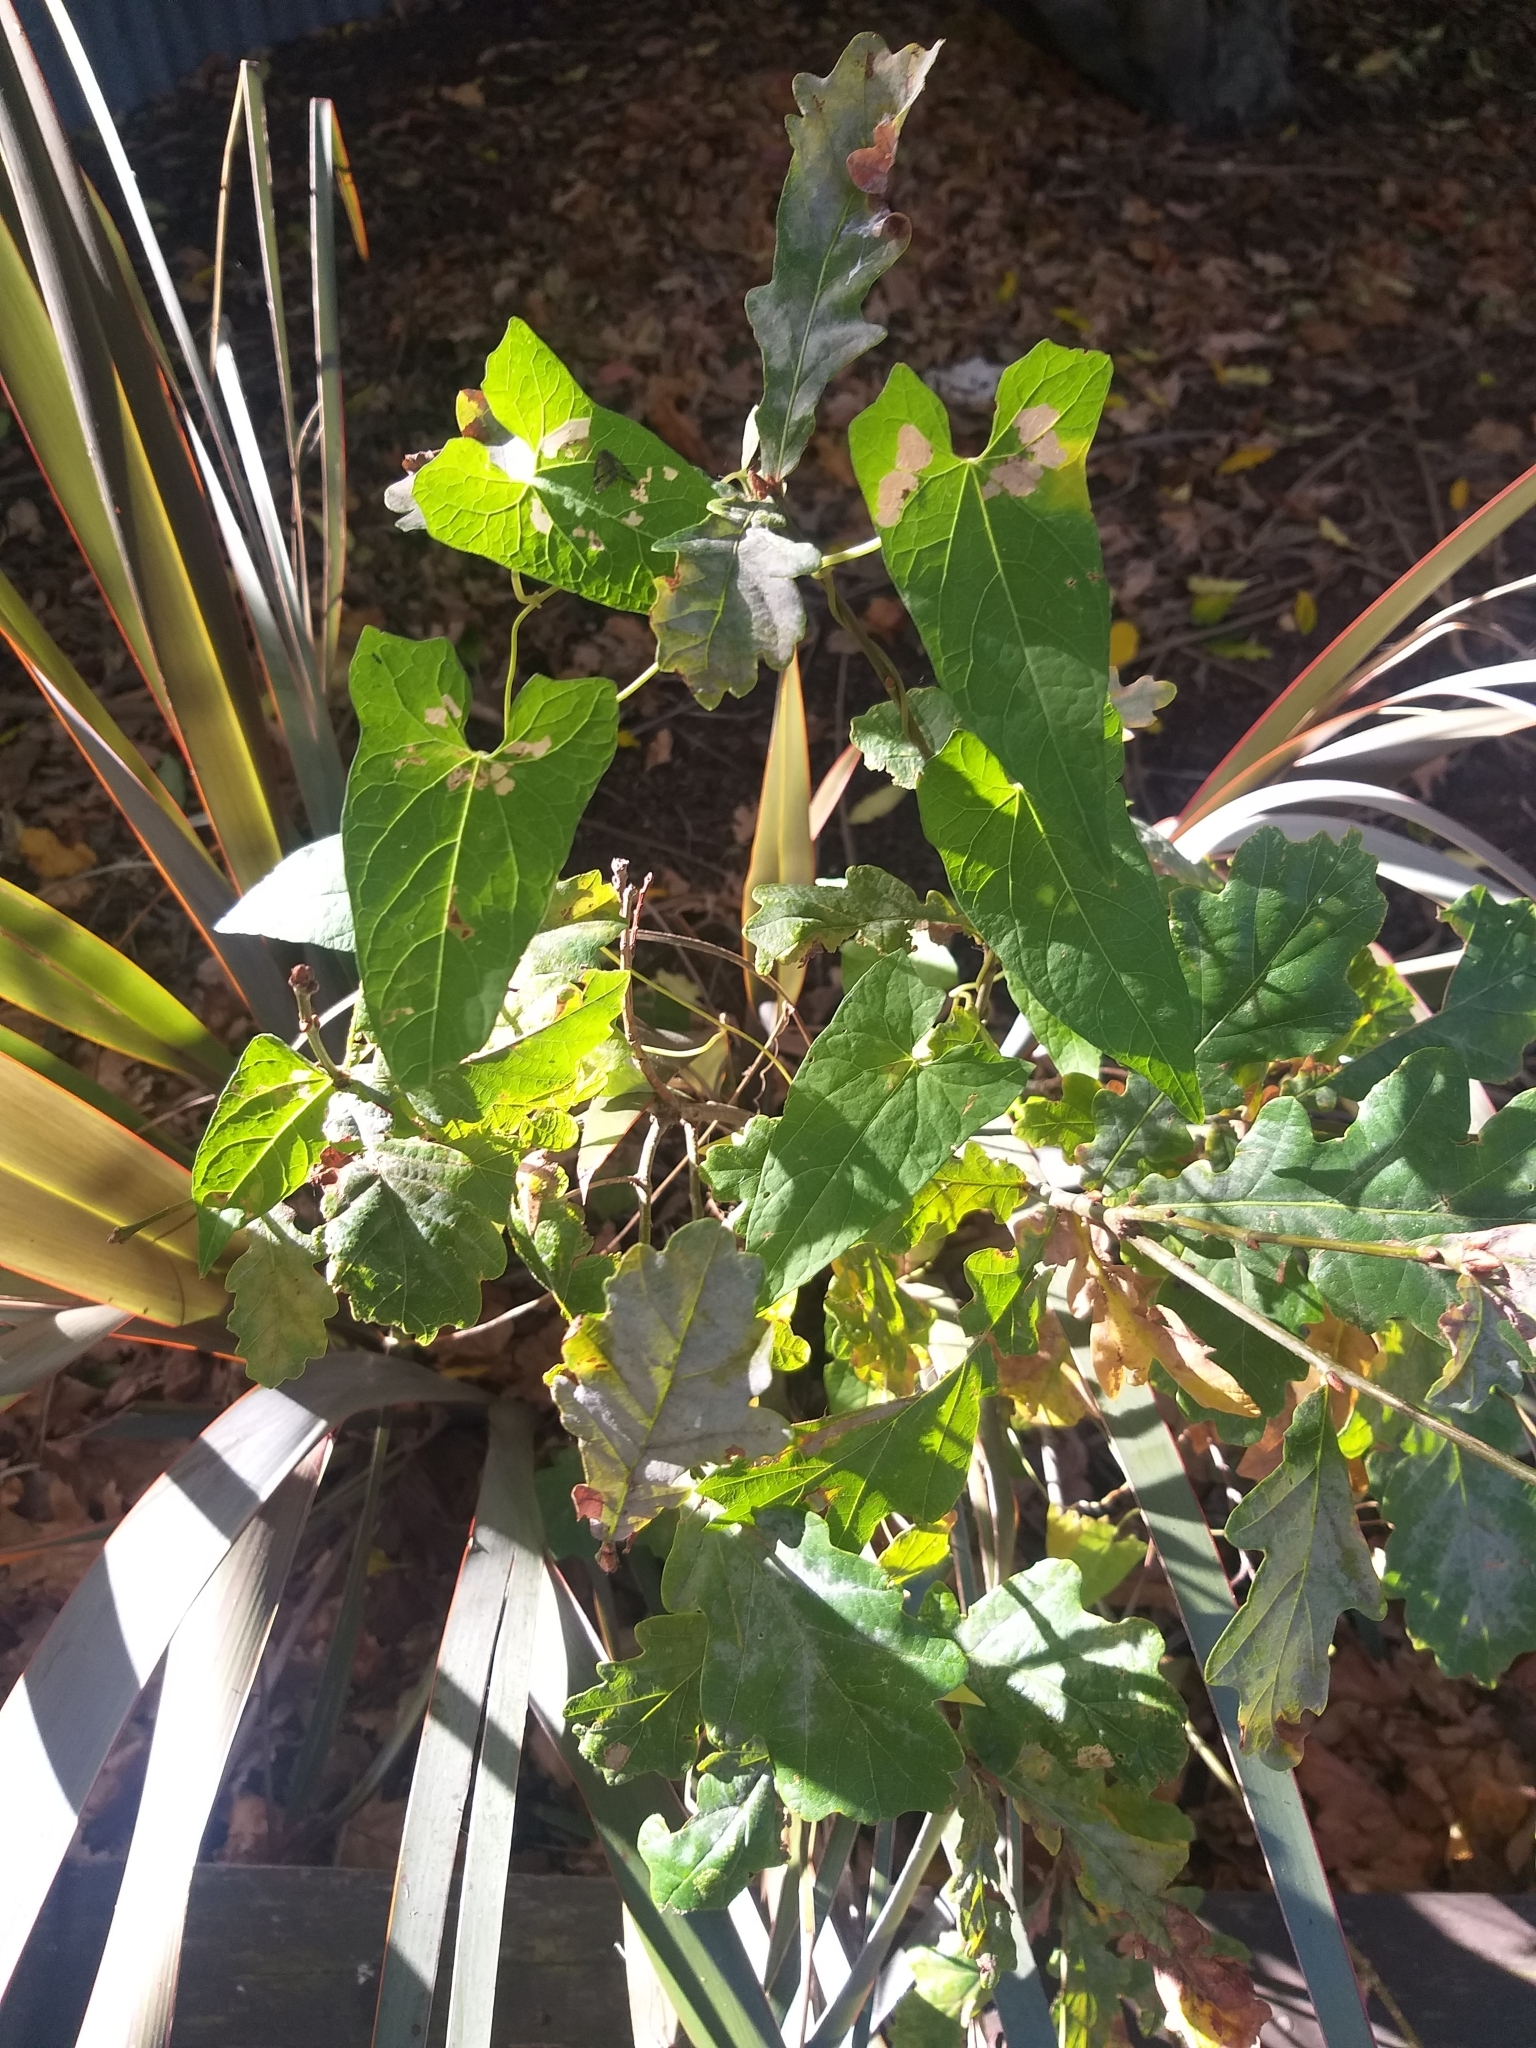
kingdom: Plantae
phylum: Tracheophyta
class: Magnoliopsida
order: Solanales
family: Convolvulaceae
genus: Calystegia
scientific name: Calystegia silvatica
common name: Large bindweed
